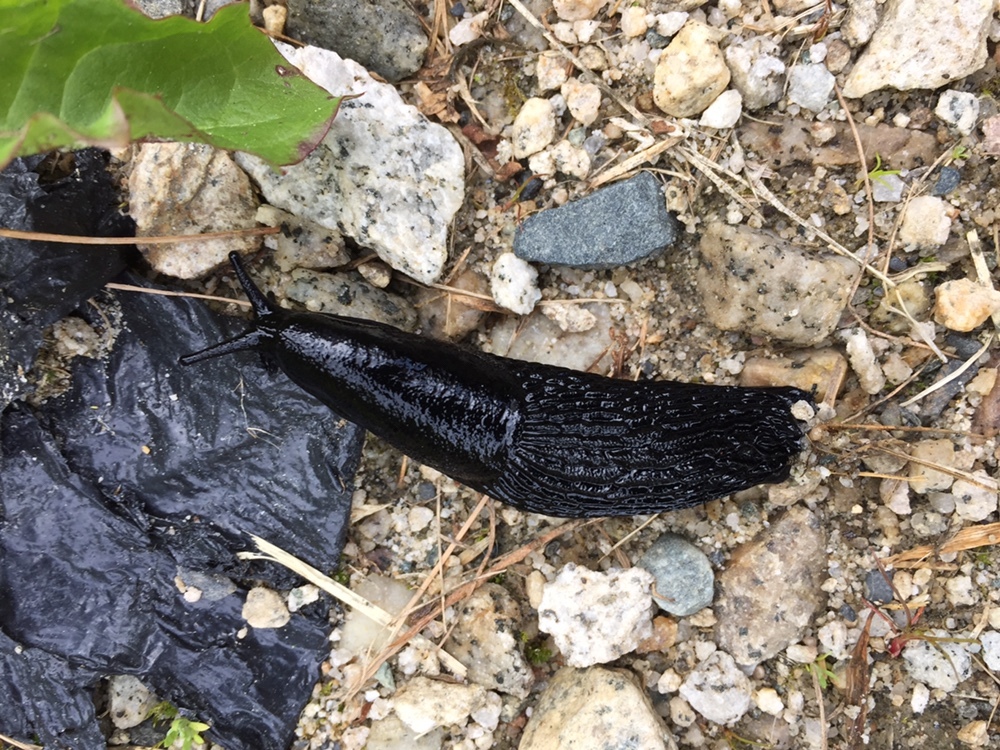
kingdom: Animalia
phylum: Mollusca
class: Gastropoda
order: Stylommatophora
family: Arionidae
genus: Arion
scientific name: Arion
